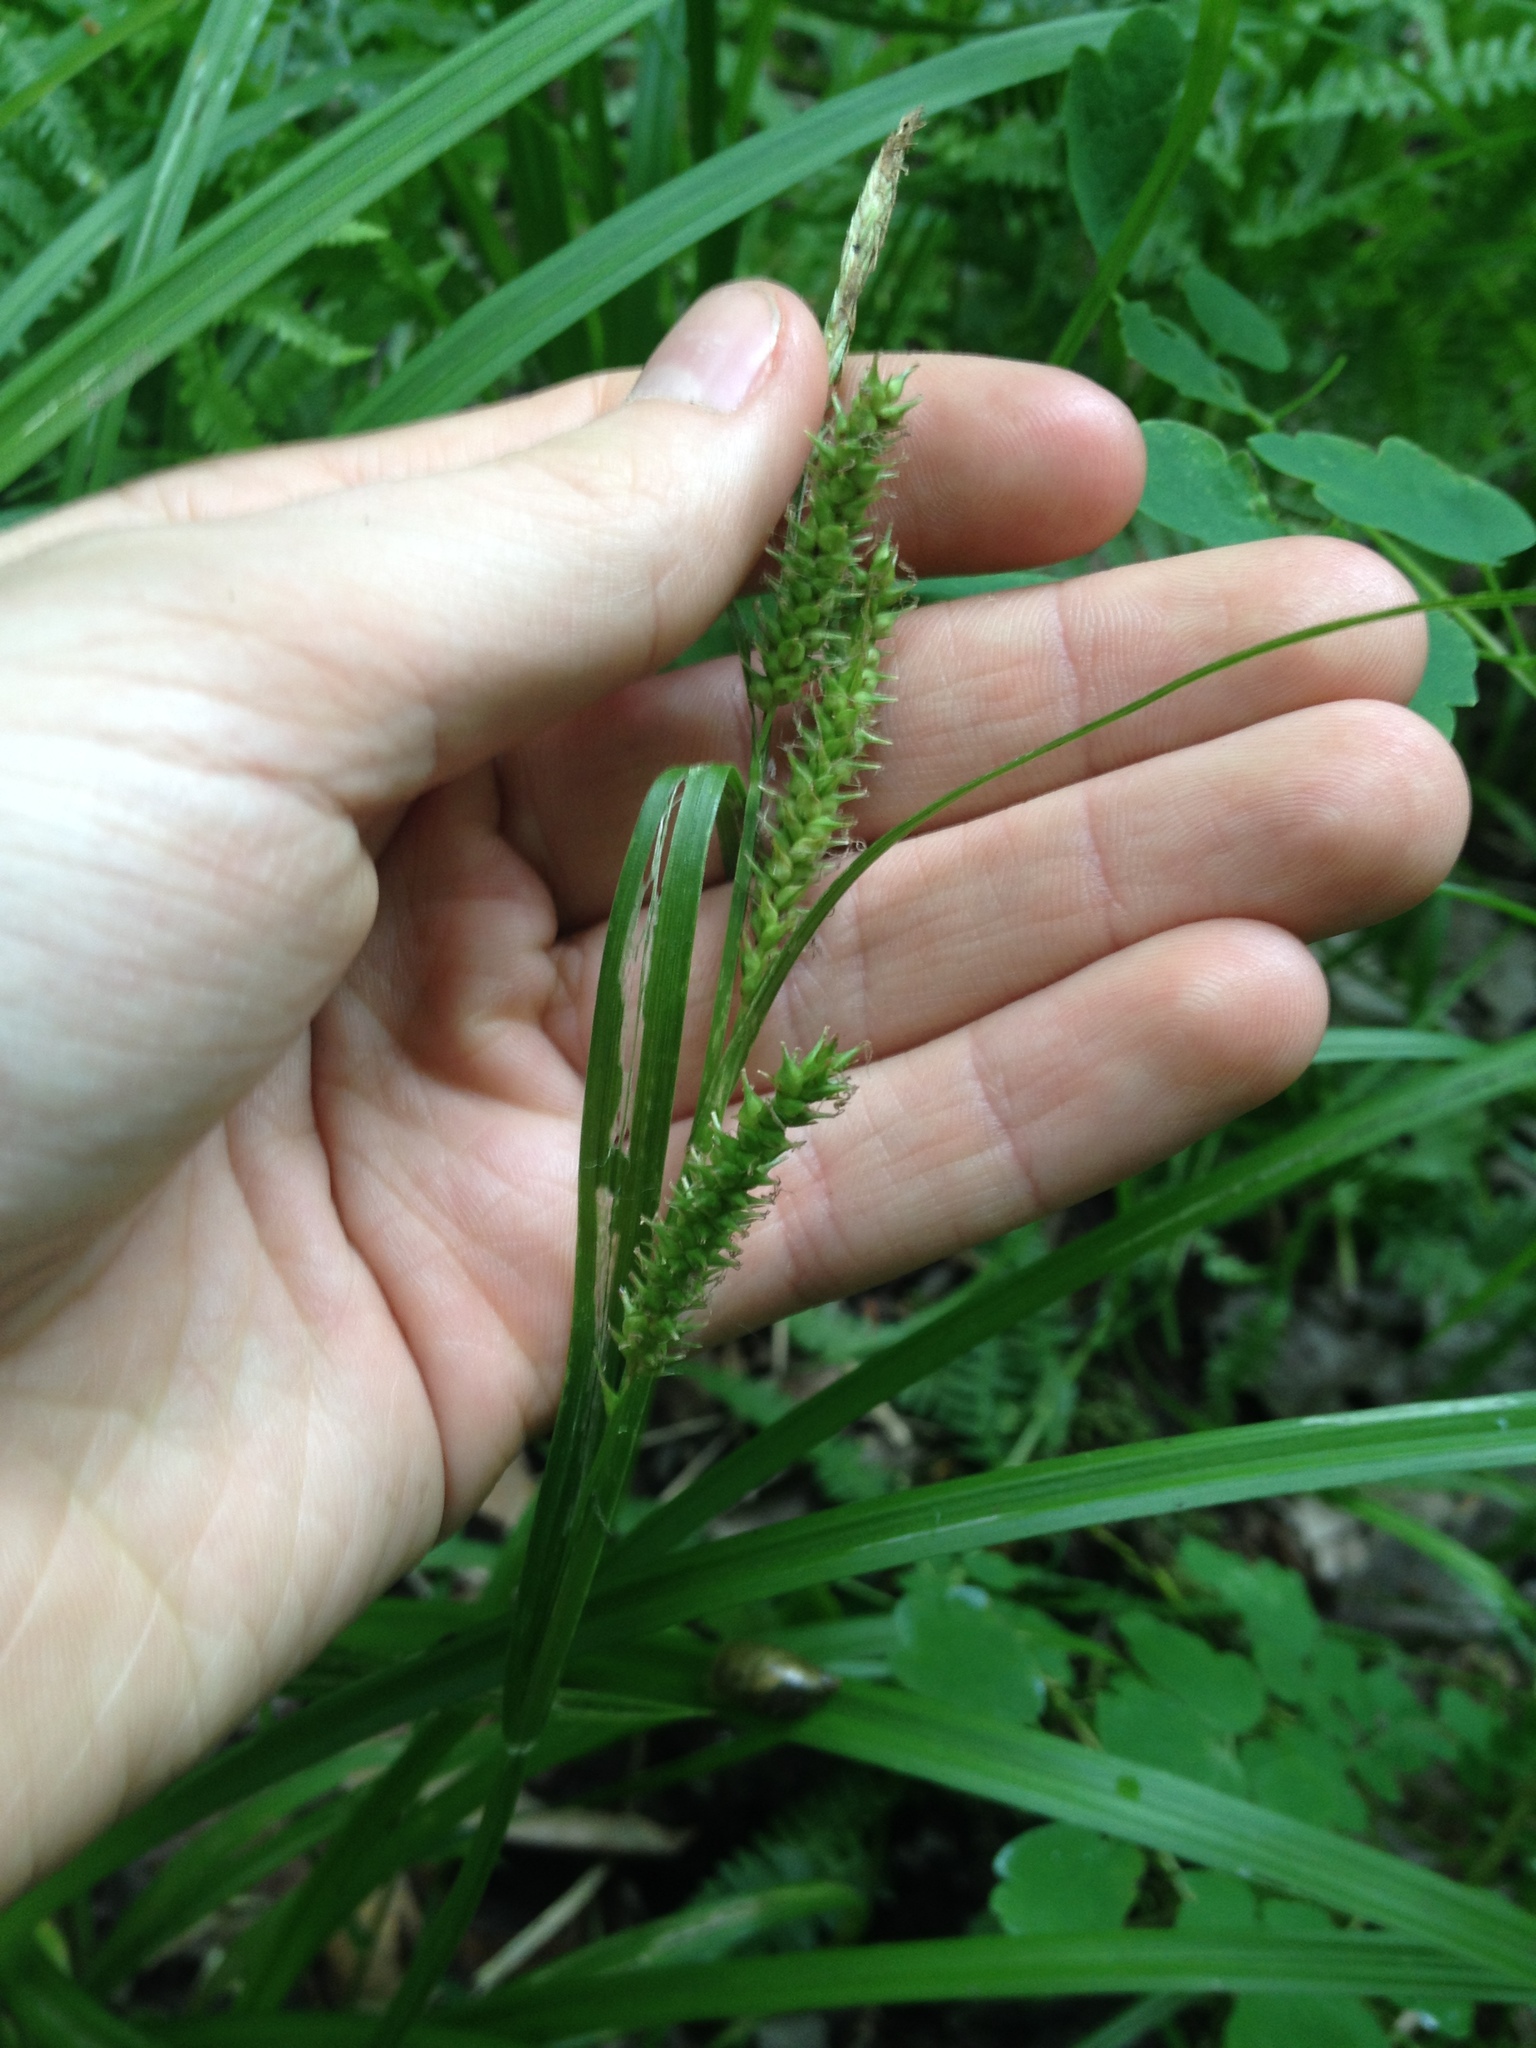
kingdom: Plantae
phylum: Tracheophyta
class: Liliopsida
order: Poales
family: Cyperaceae
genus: Carex
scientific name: Carex scabrata
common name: Eastern rough sedge
